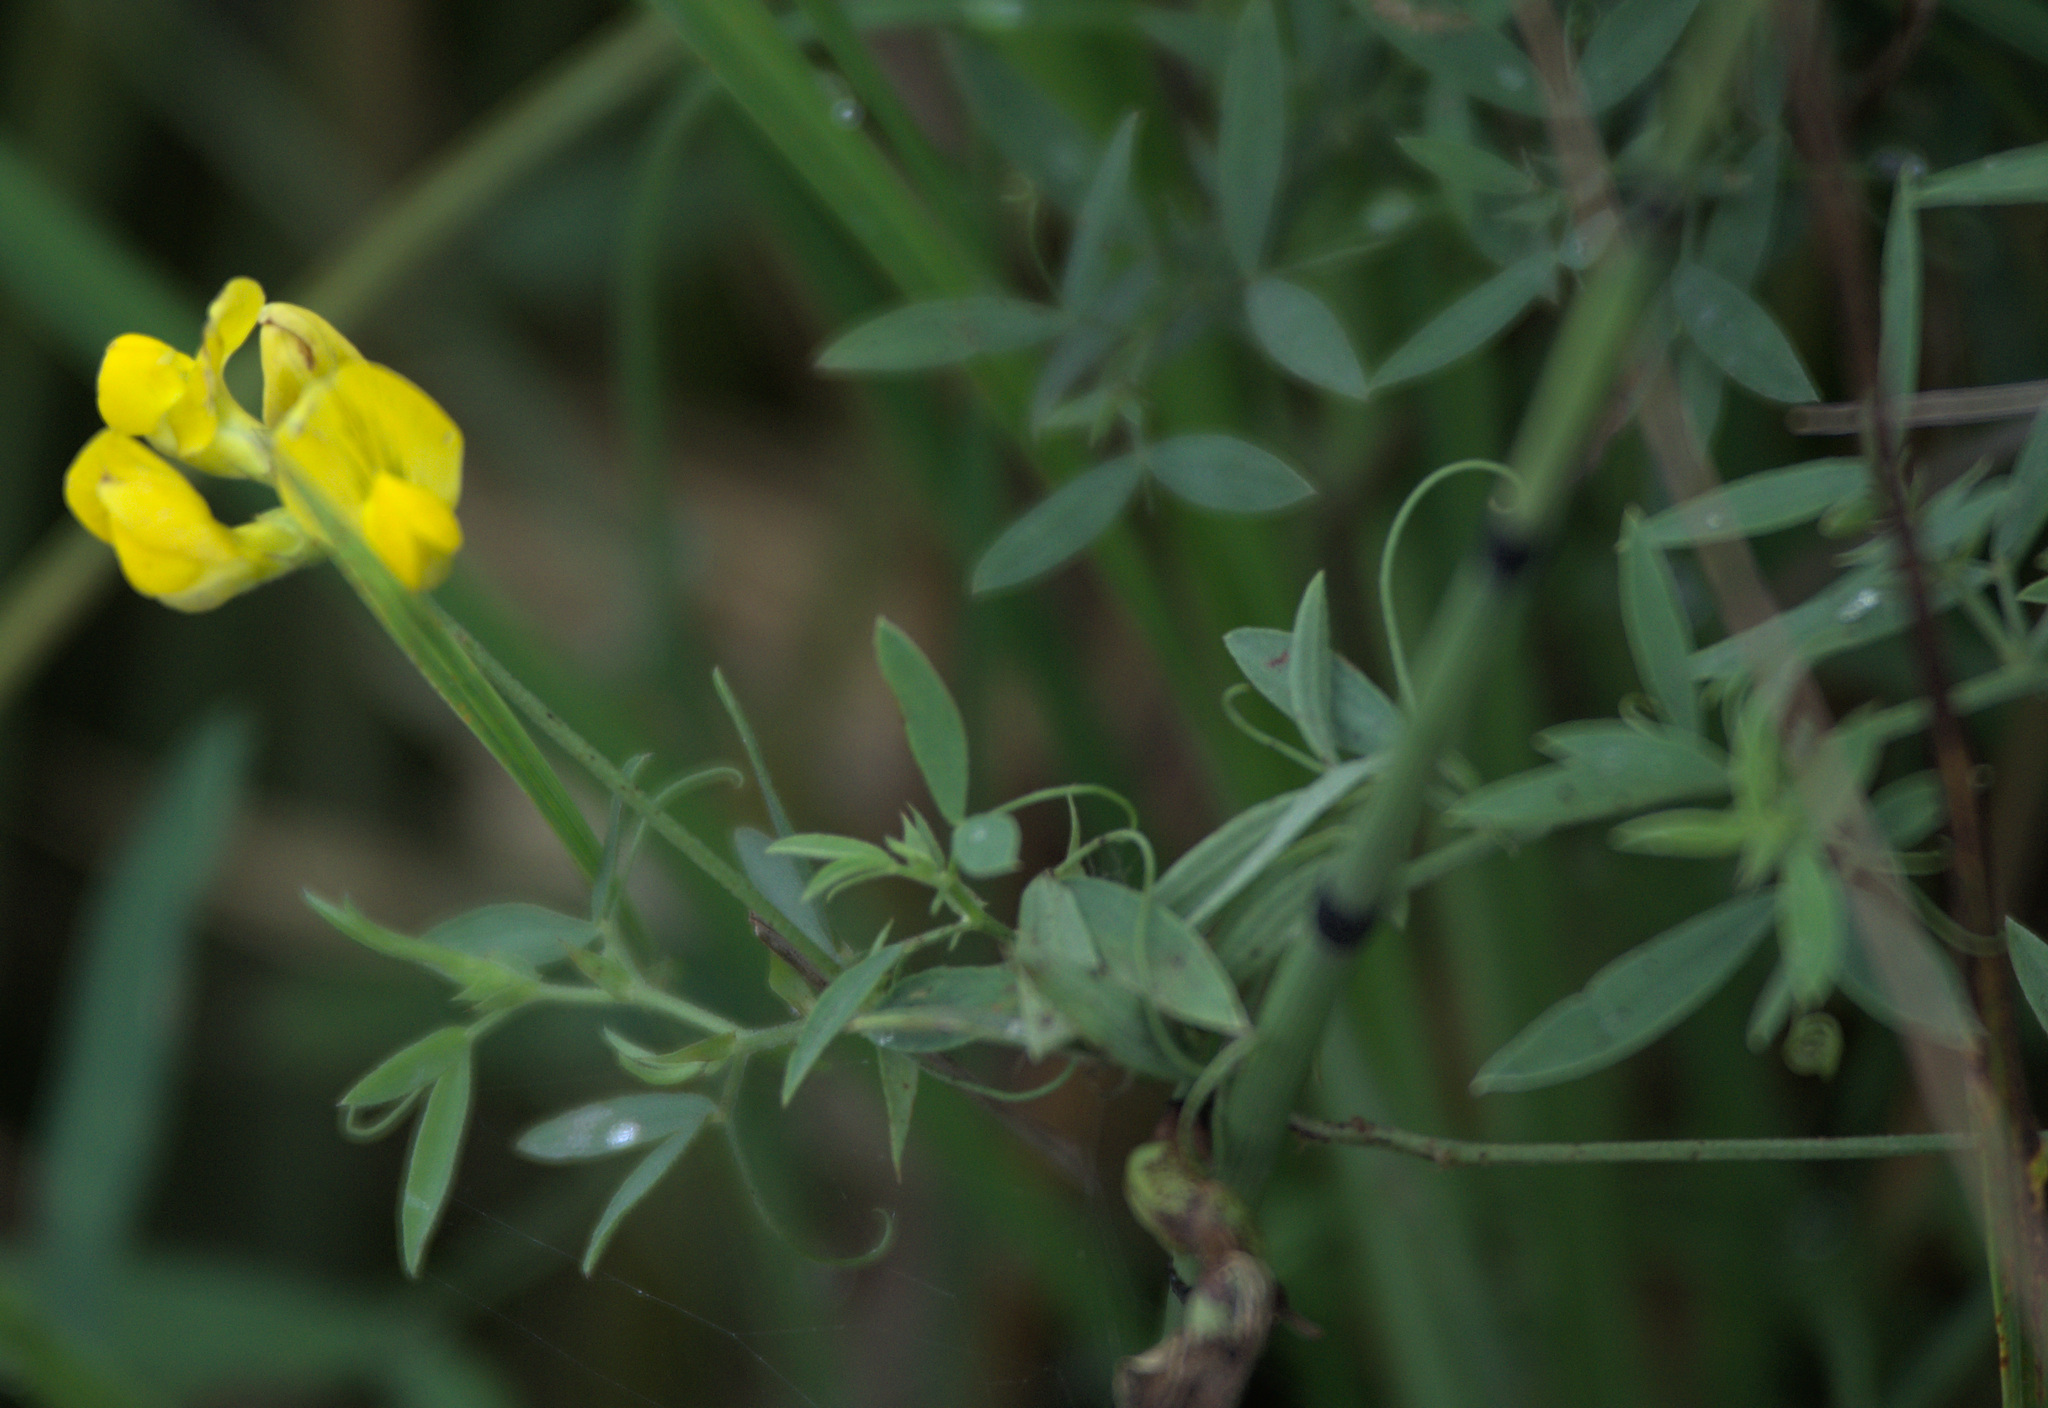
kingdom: Plantae
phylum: Tracheophyta
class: Magnoliopsida
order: Fabales
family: Fabaceae
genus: Lathyrus
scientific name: Lathyrus pratensis
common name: Meadow vetchling
